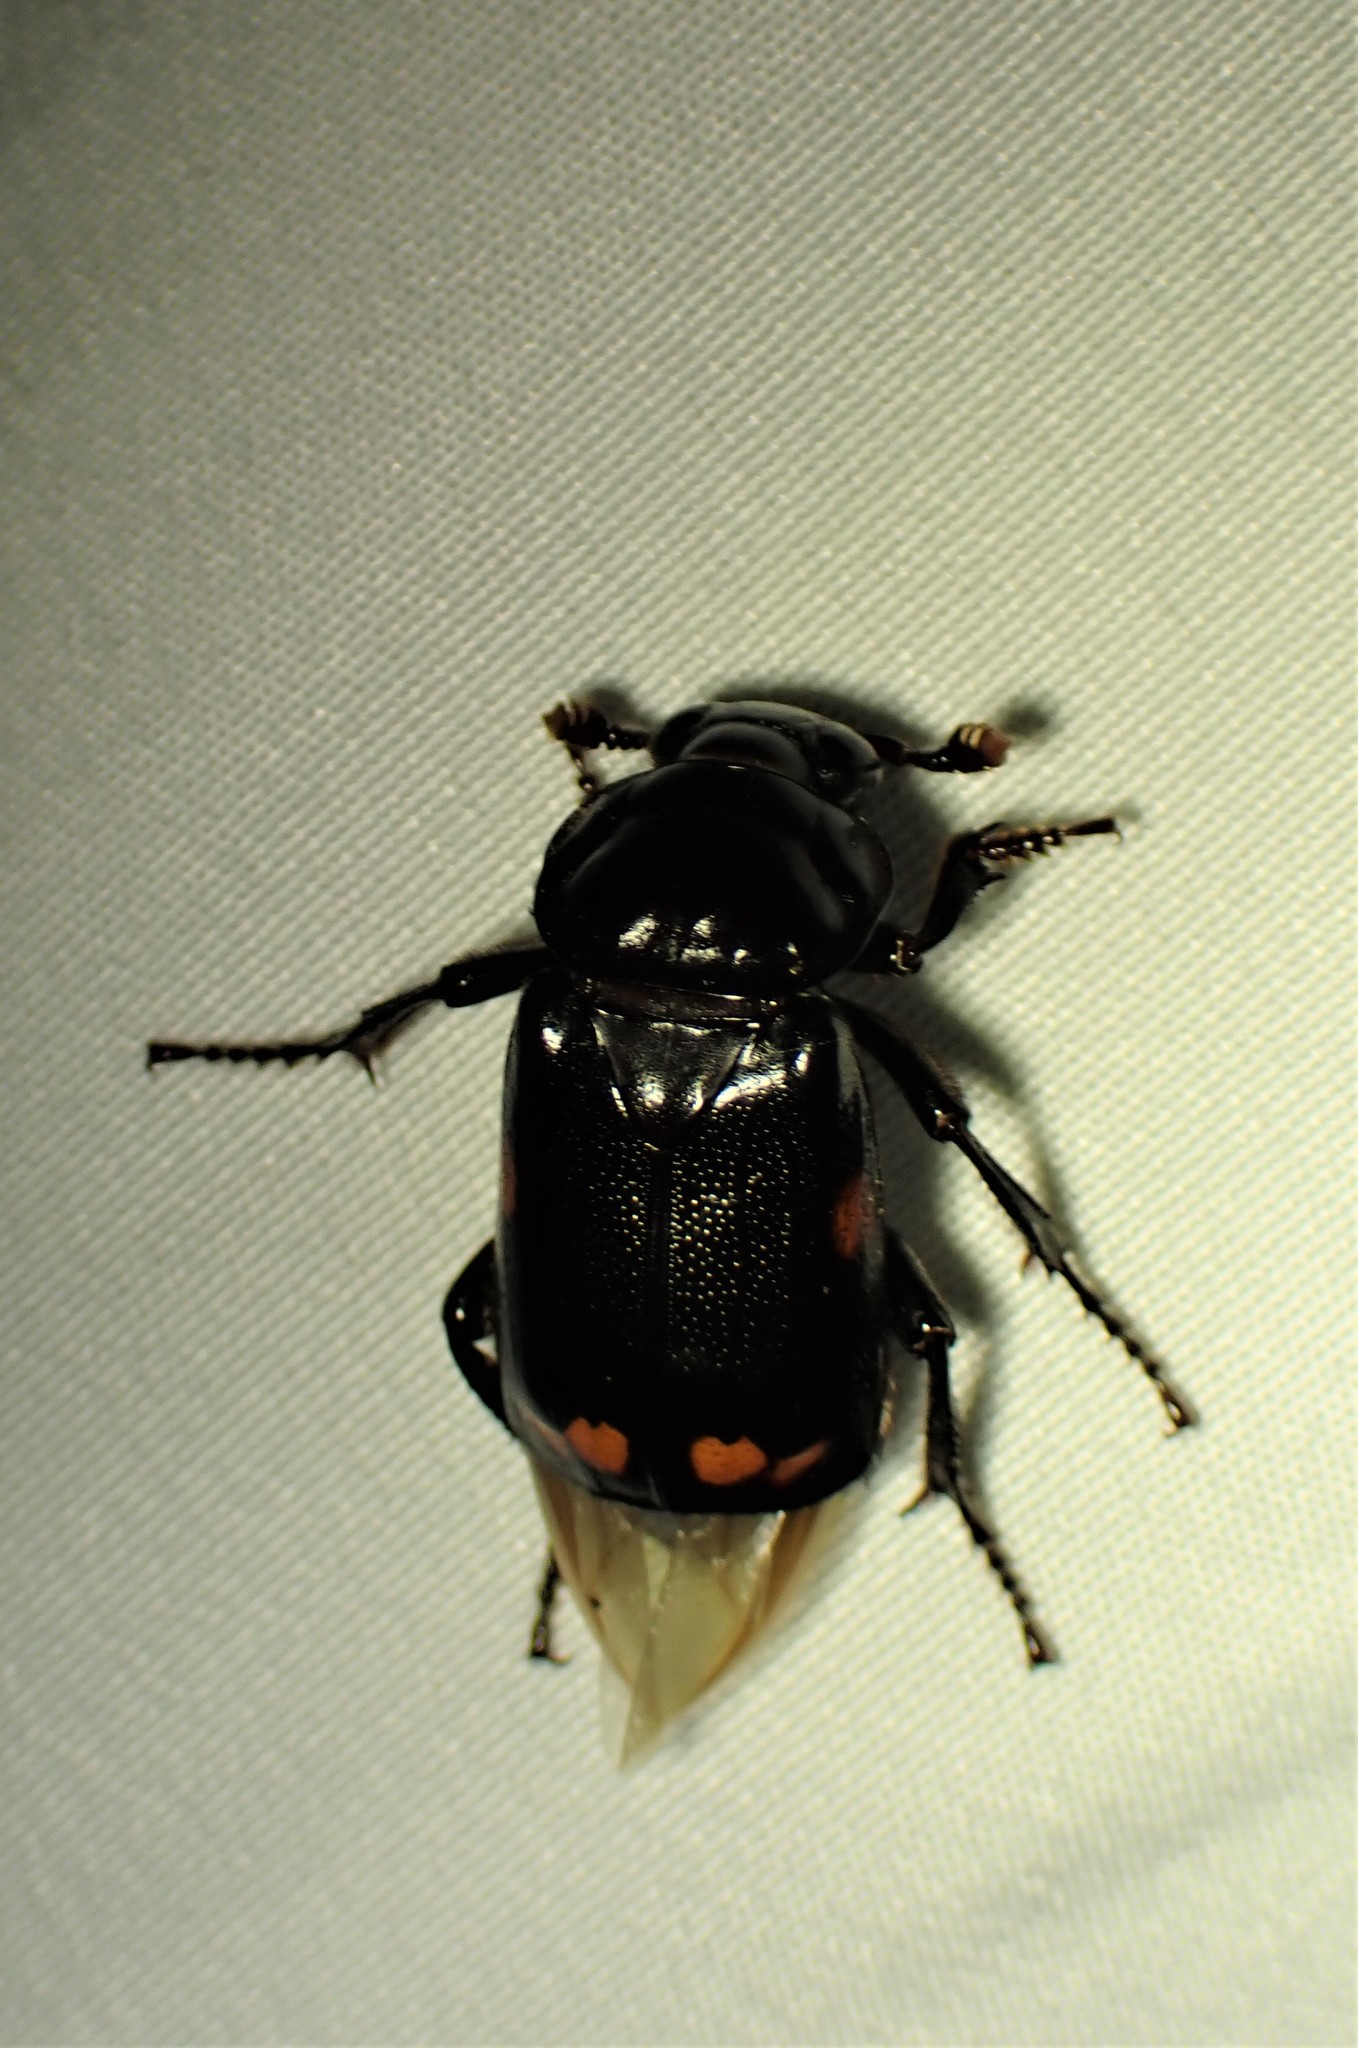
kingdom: Animalia
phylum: Arthropoda
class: Insecta
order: Coleoptera
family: Staphylinidae
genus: Nicrophorus
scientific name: Nicrophorus pustulatus
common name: Pustulated carrion beetle
